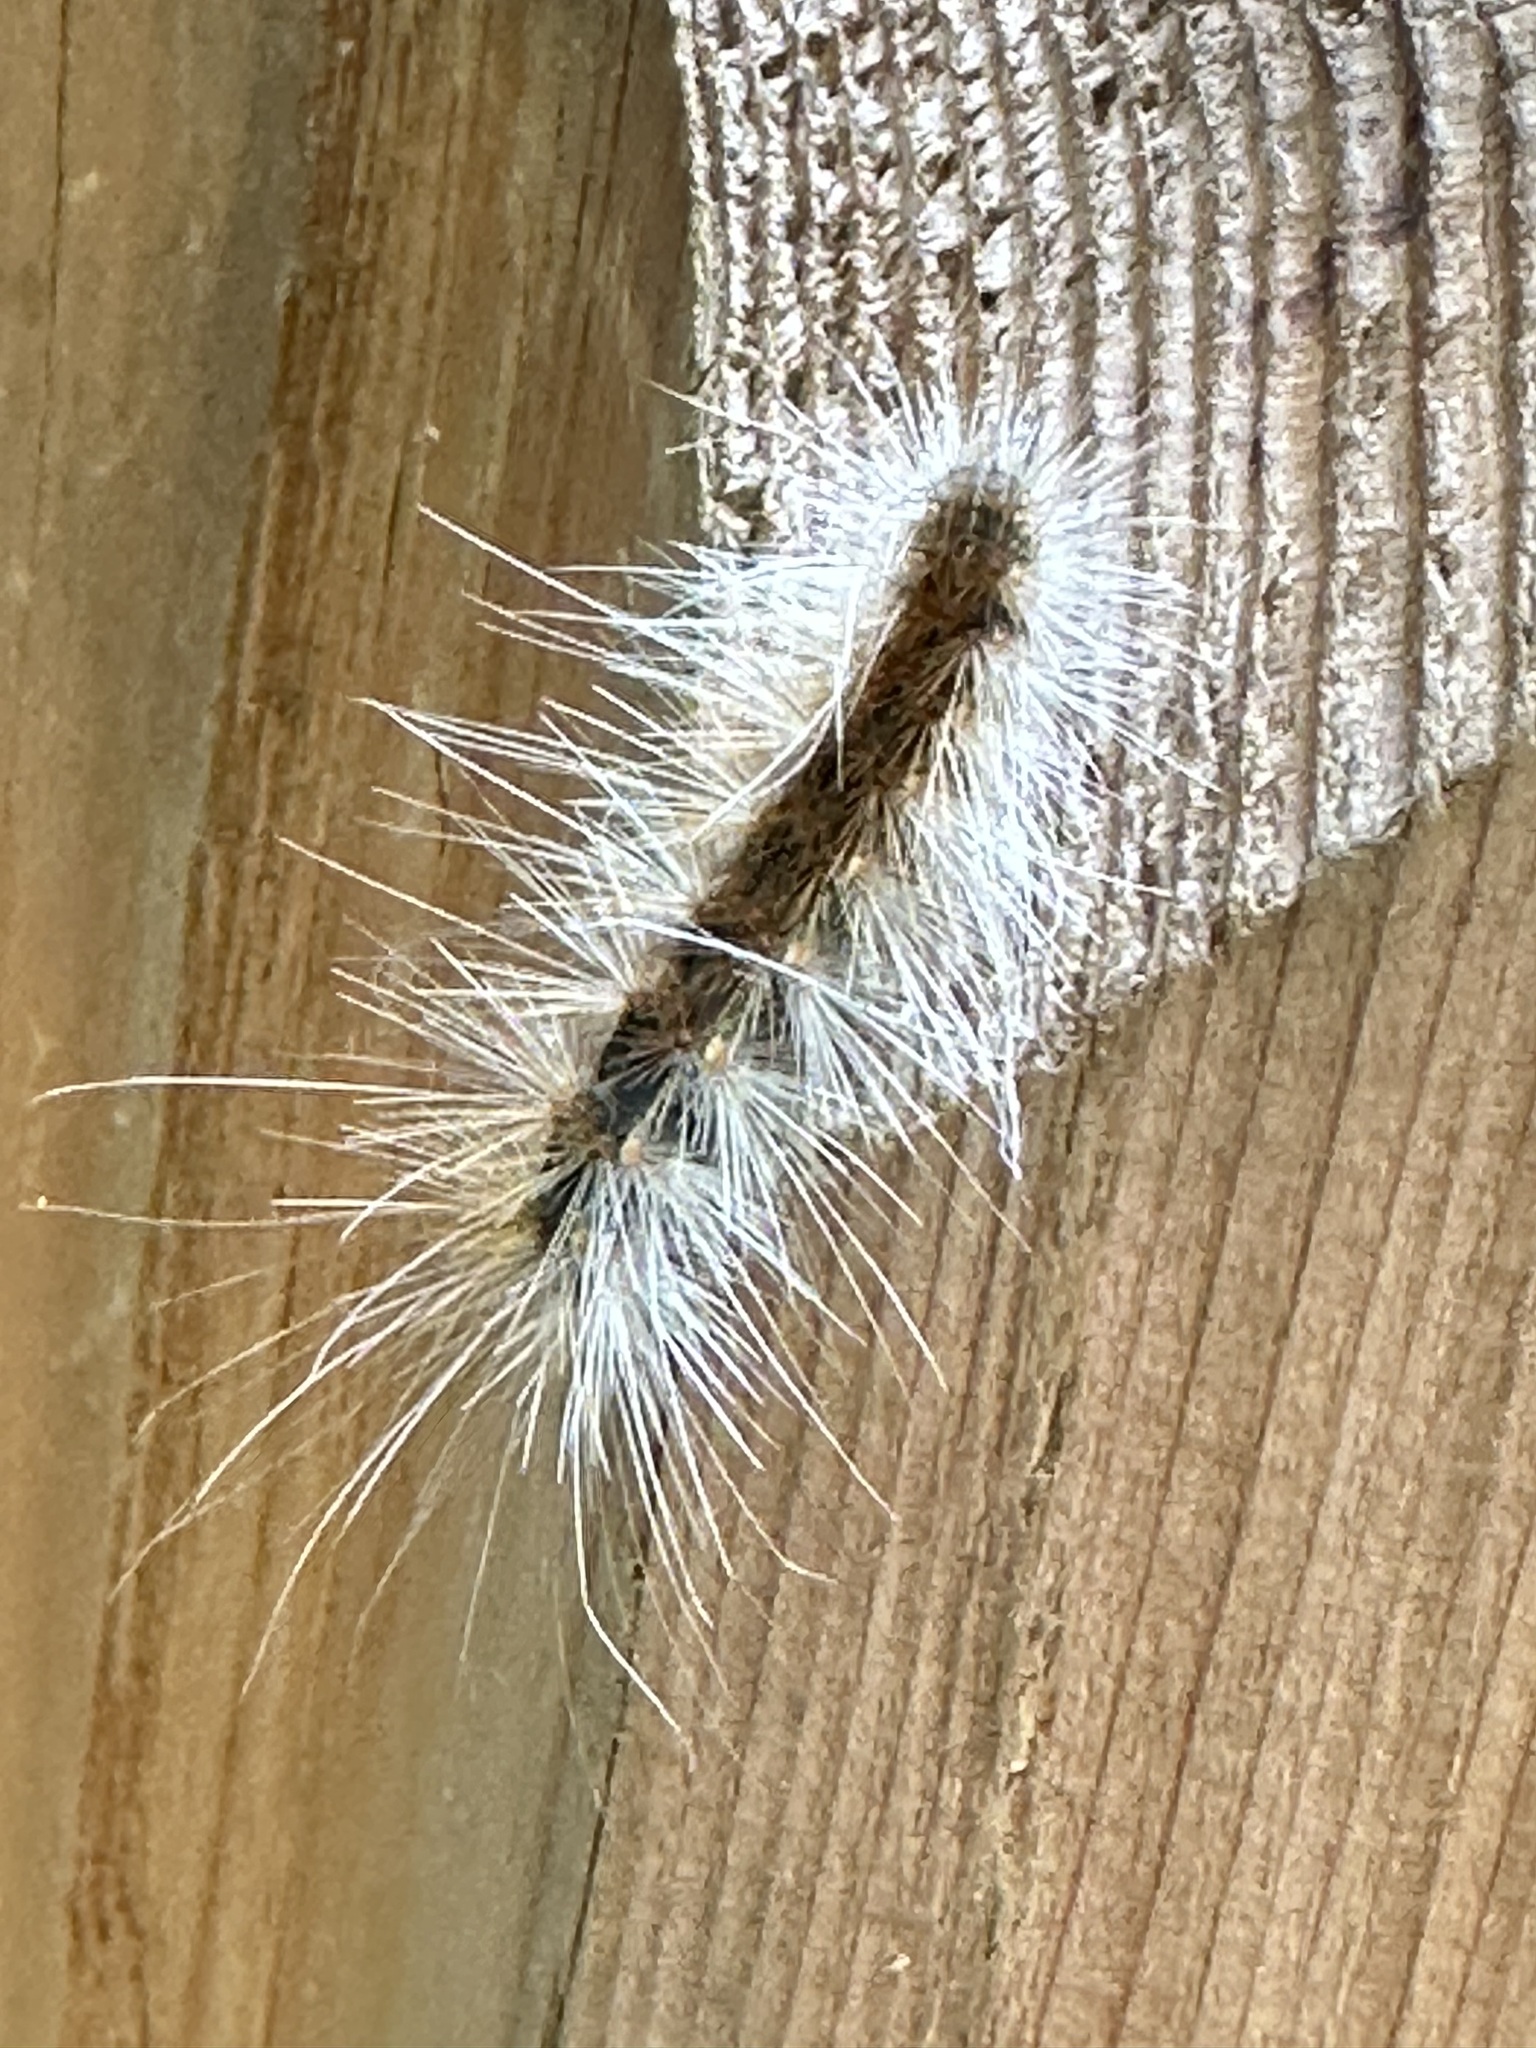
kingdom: Animalia
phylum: Arthropoda
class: Insecta
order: Lepidoptera
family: Erebidae
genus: Hyphantria
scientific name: Hyphantria cunea
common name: American white moth
